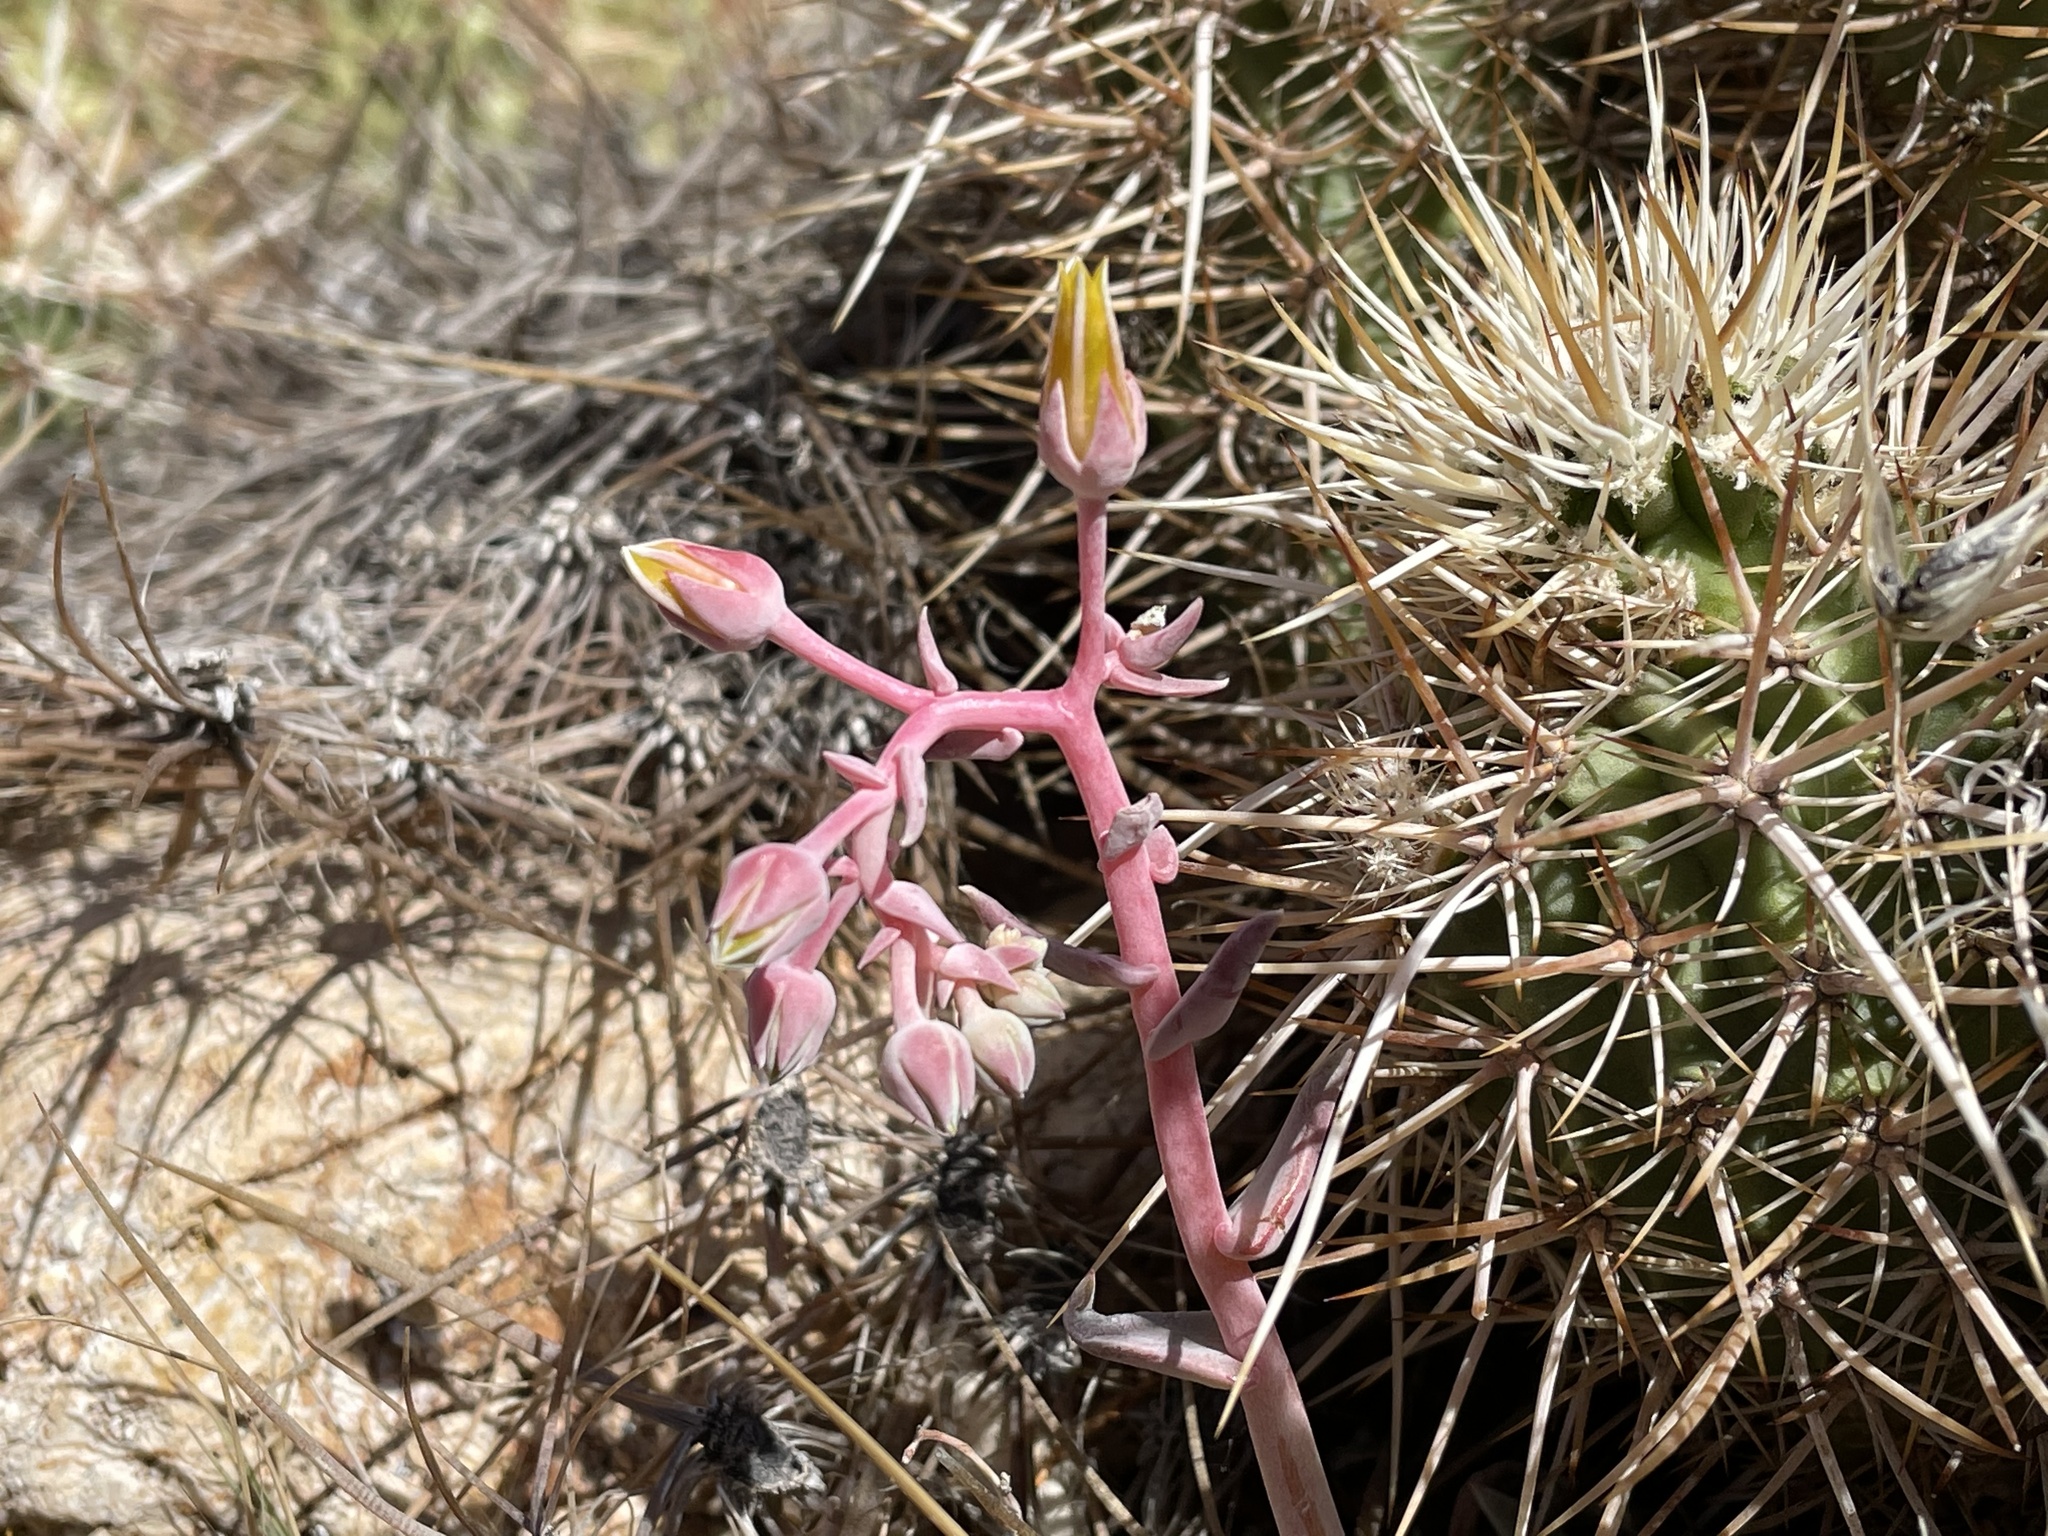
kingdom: Plantae
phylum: Tracheophyta
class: Magnoliopsida
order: Saxifragales
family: Crassulaceae
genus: Dudleya
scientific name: Dudleya saxosa
